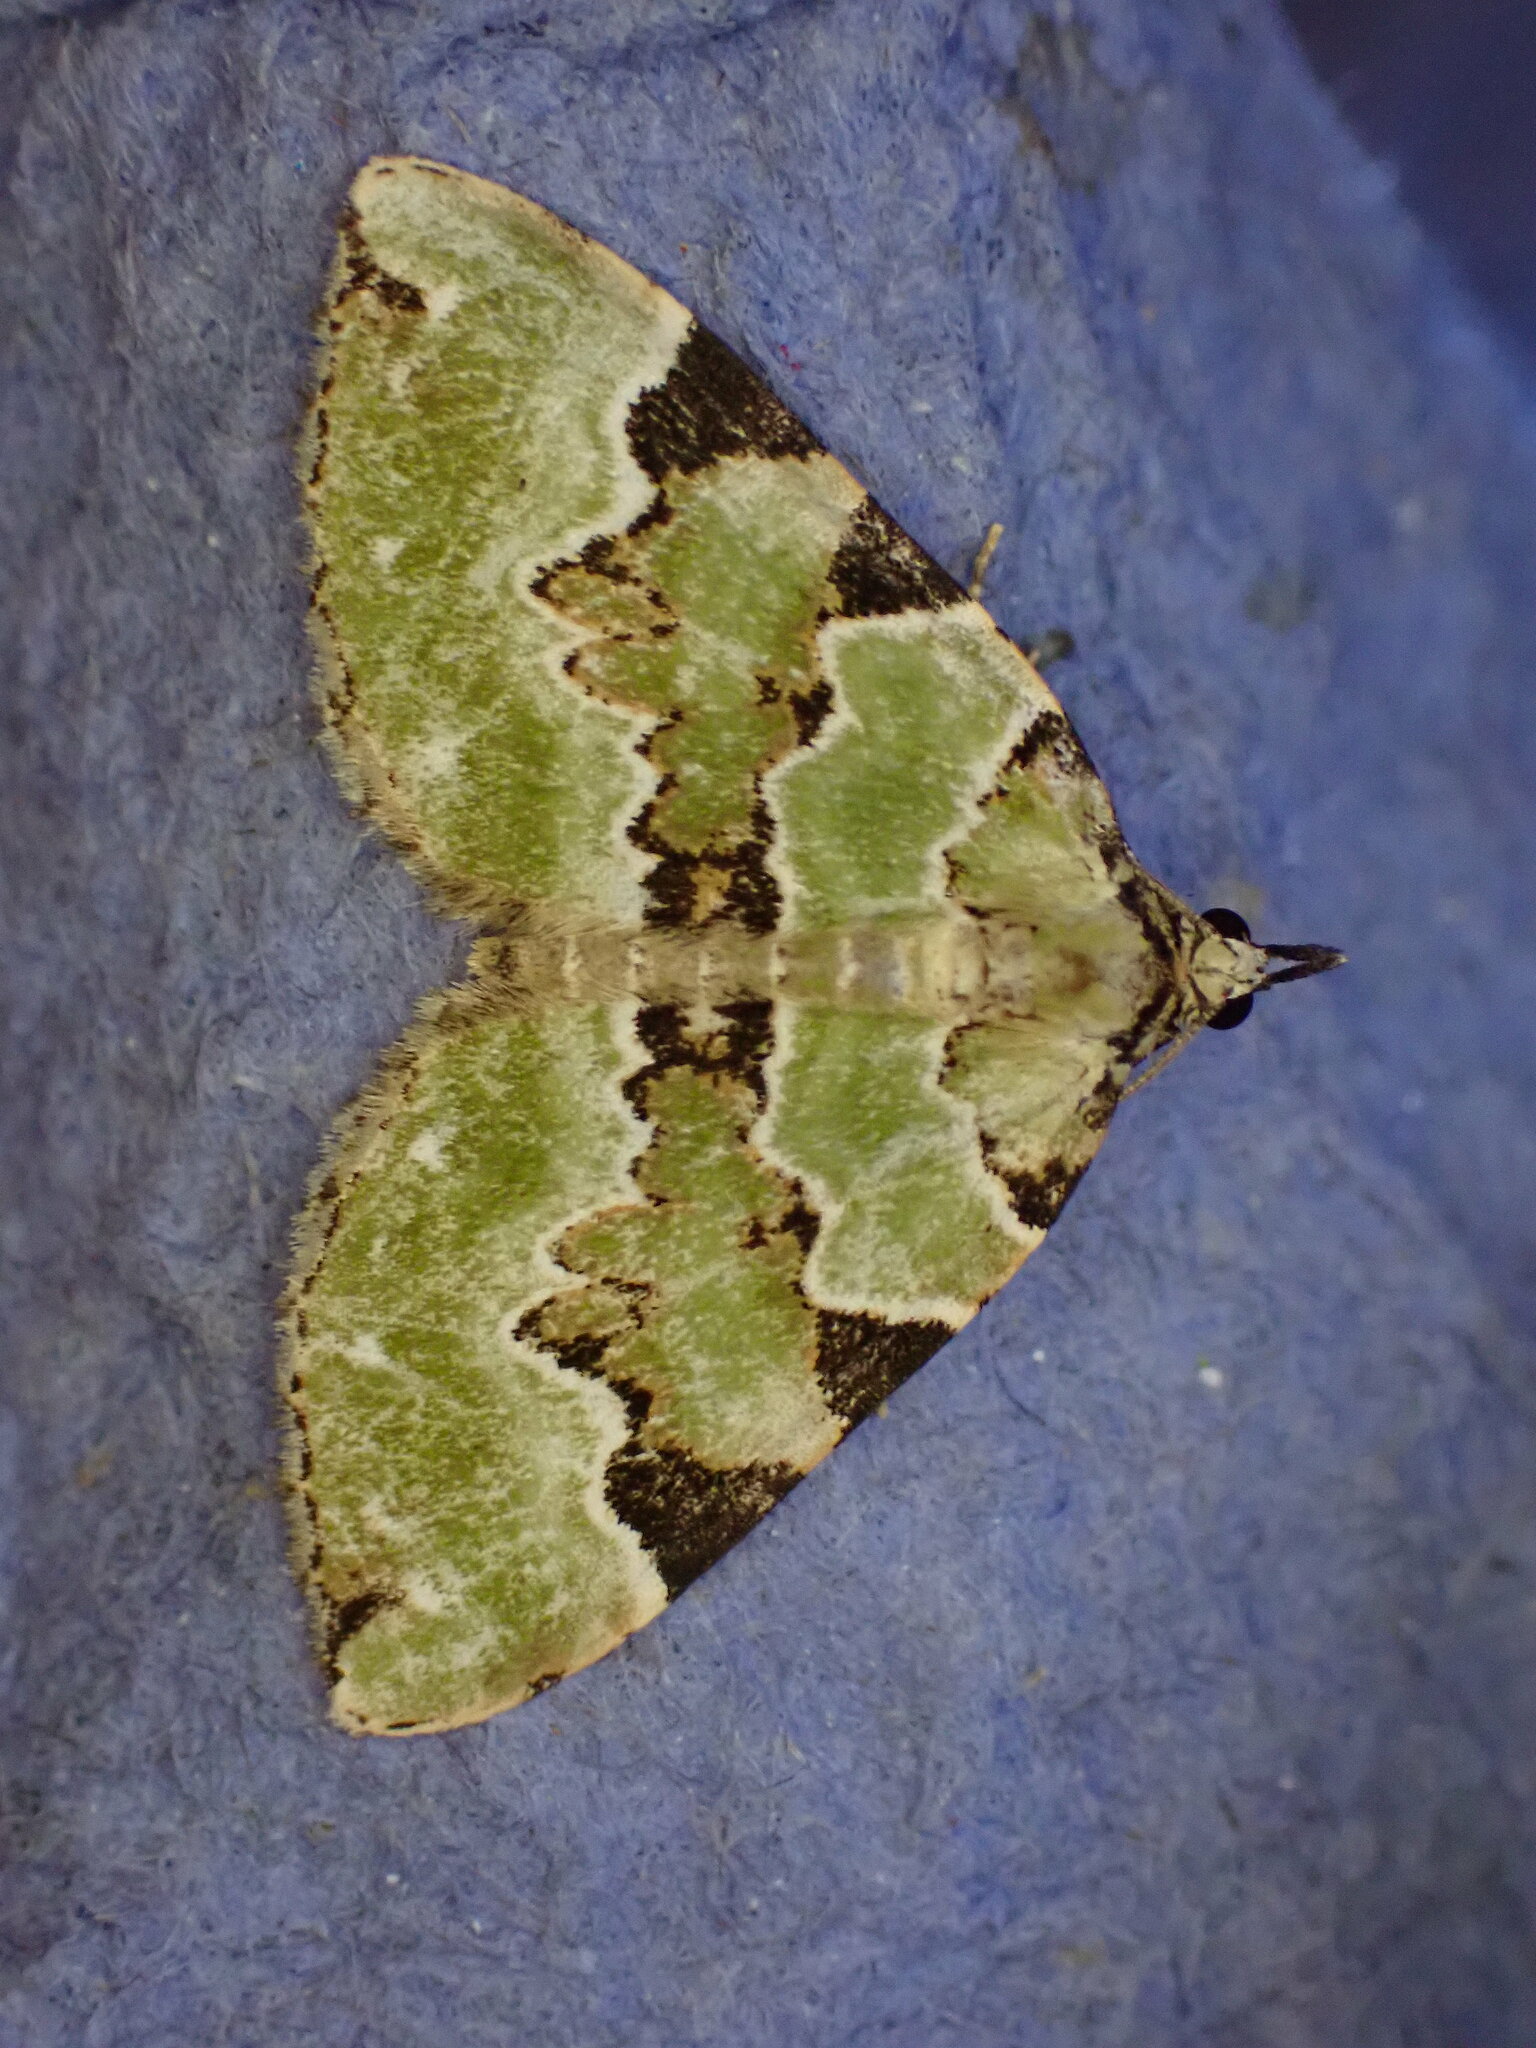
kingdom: Animalia
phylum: Arthropoda
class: Insecta
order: Lepidoptera
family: Geometridae
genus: Colostygia
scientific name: Colostygia pectinataria
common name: Green carpet
